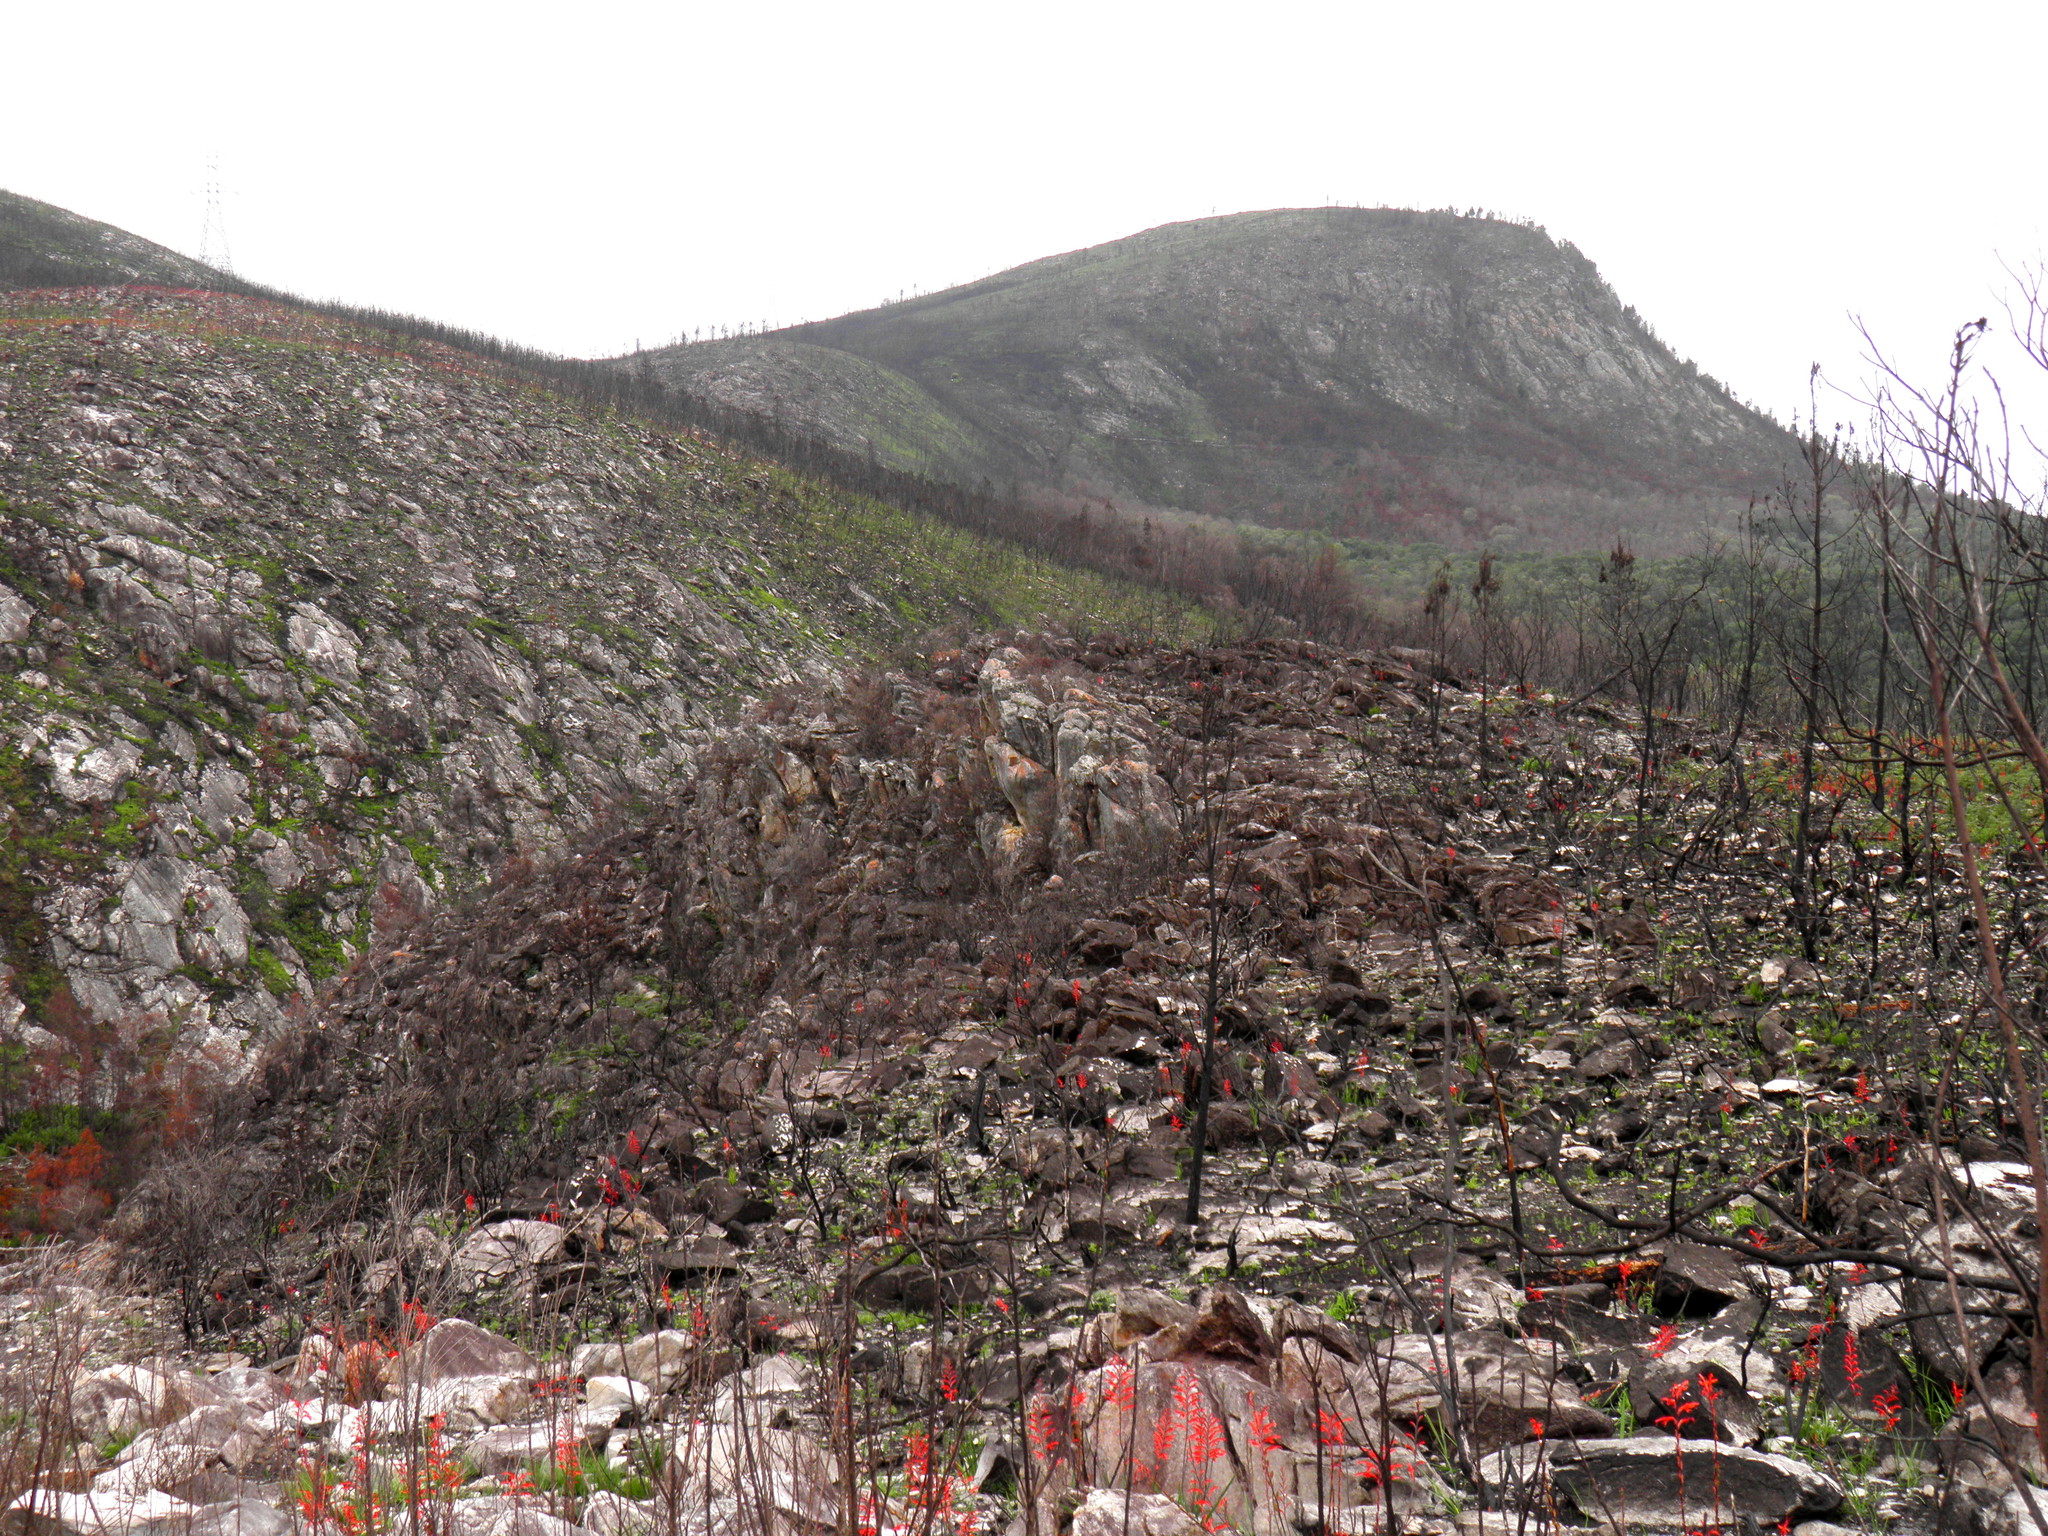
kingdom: Plantae
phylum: Tracheophyta
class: Liliopsida
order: Asparagales
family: Iridaceae
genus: Tritoniopsis
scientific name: Tritoniopsis caffra
